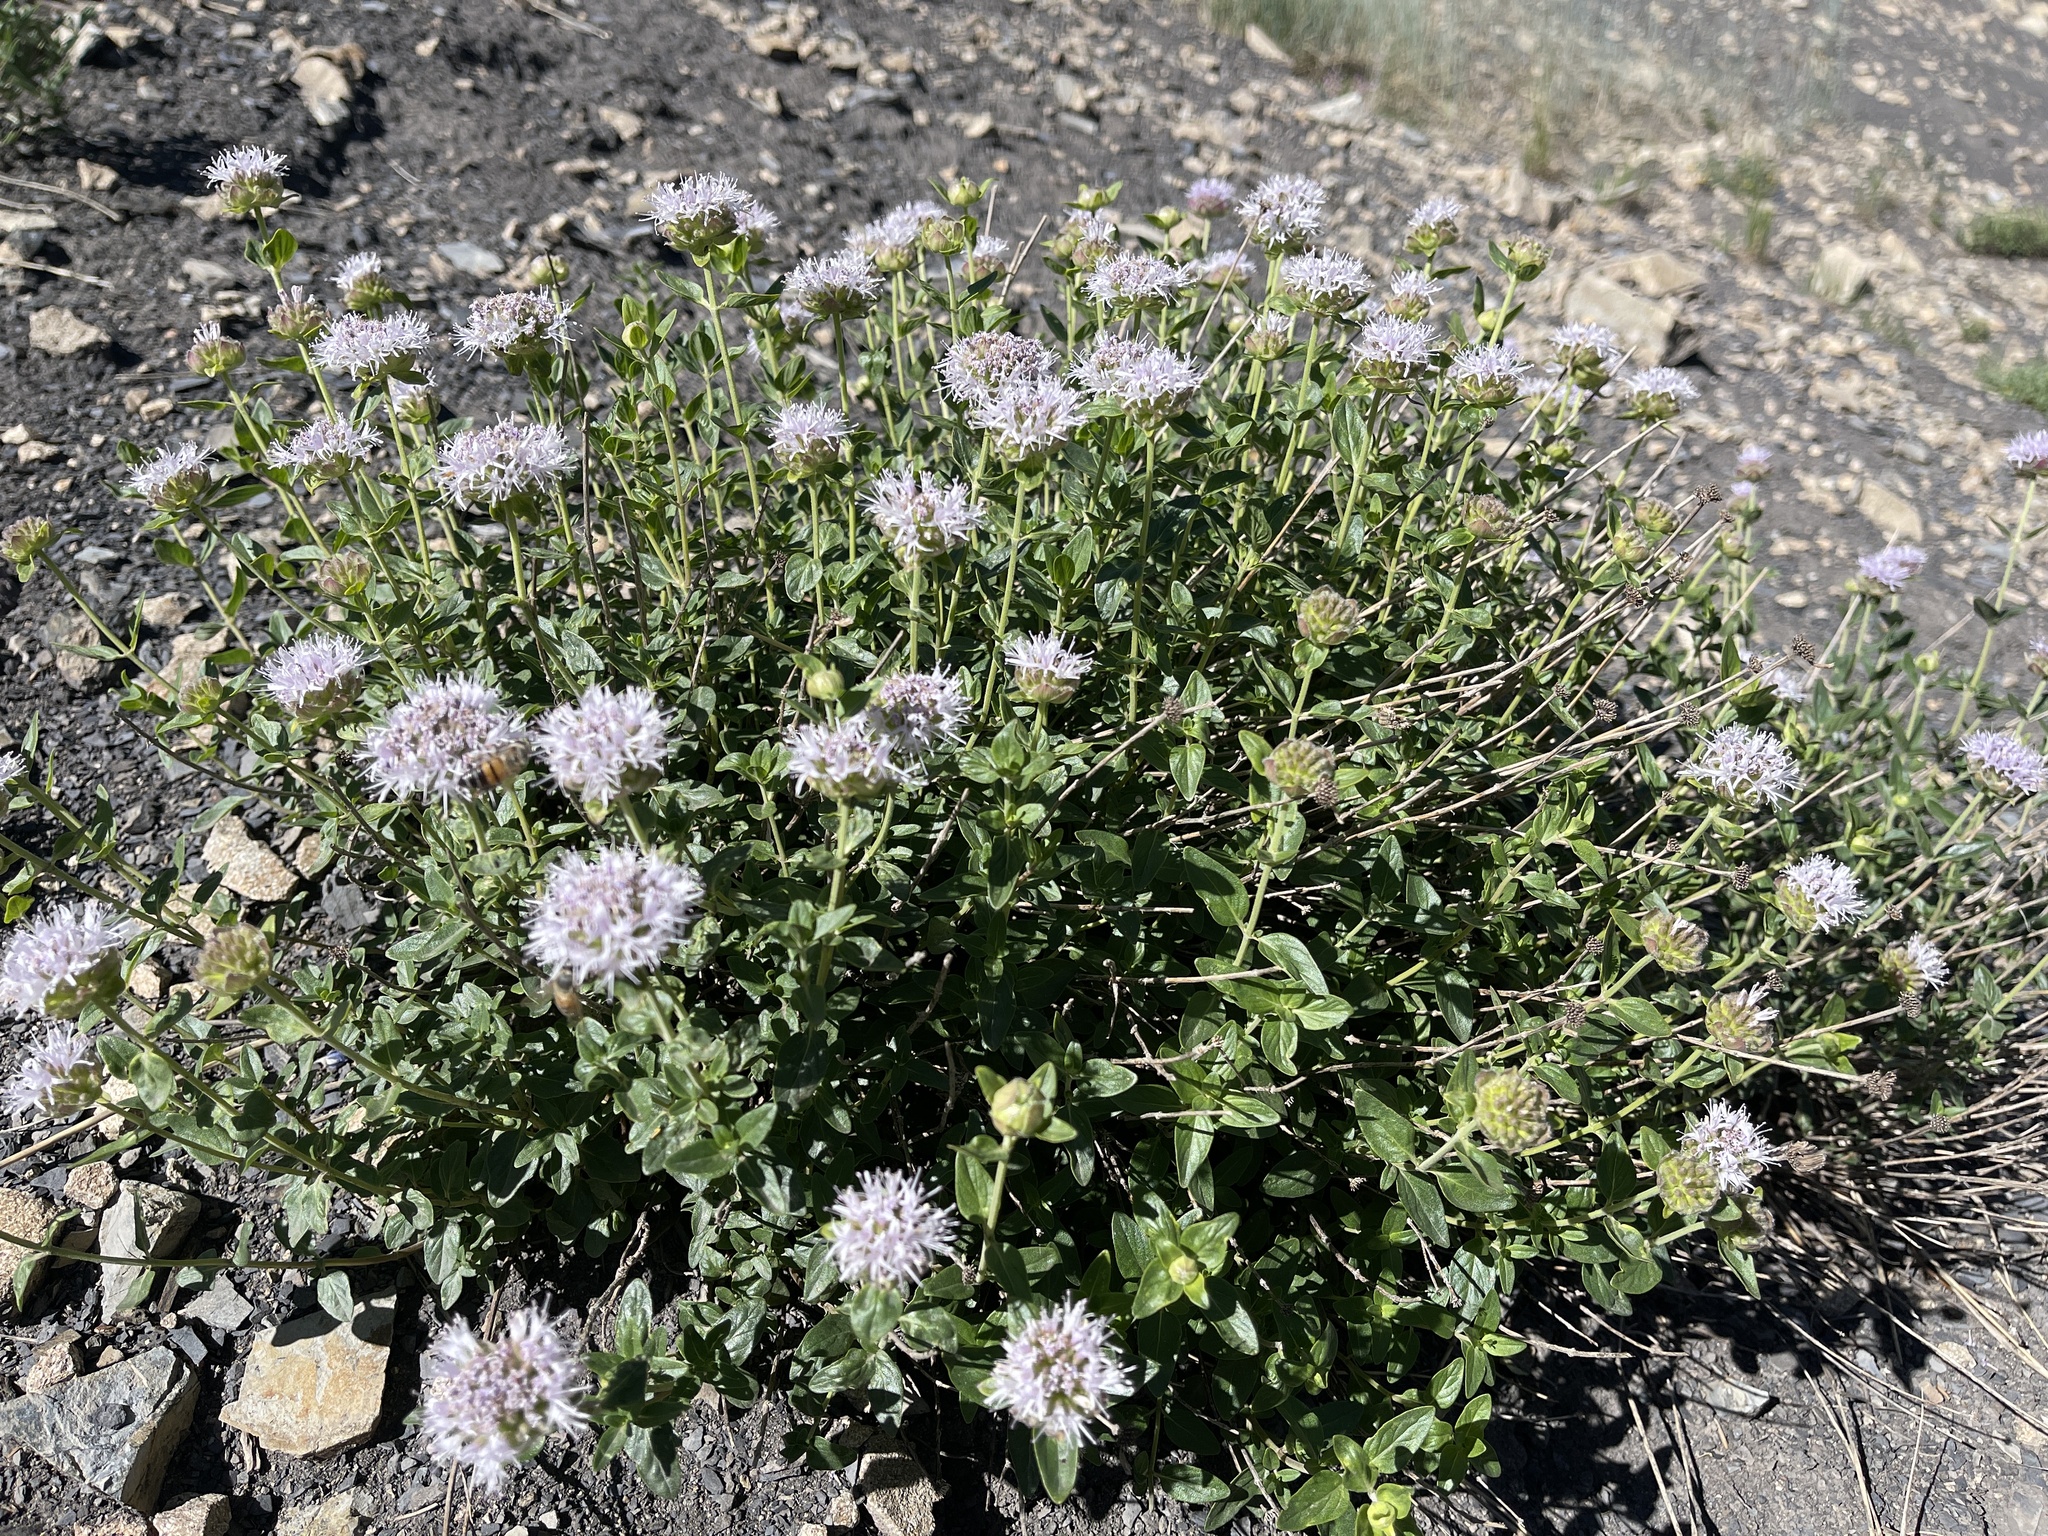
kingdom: Plantae
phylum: Tracheophyta
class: Magnoliopsida
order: Lamiales
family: Lamiaceae
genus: Monardella
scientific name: Monardella odoratissima
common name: Pacific monardella
